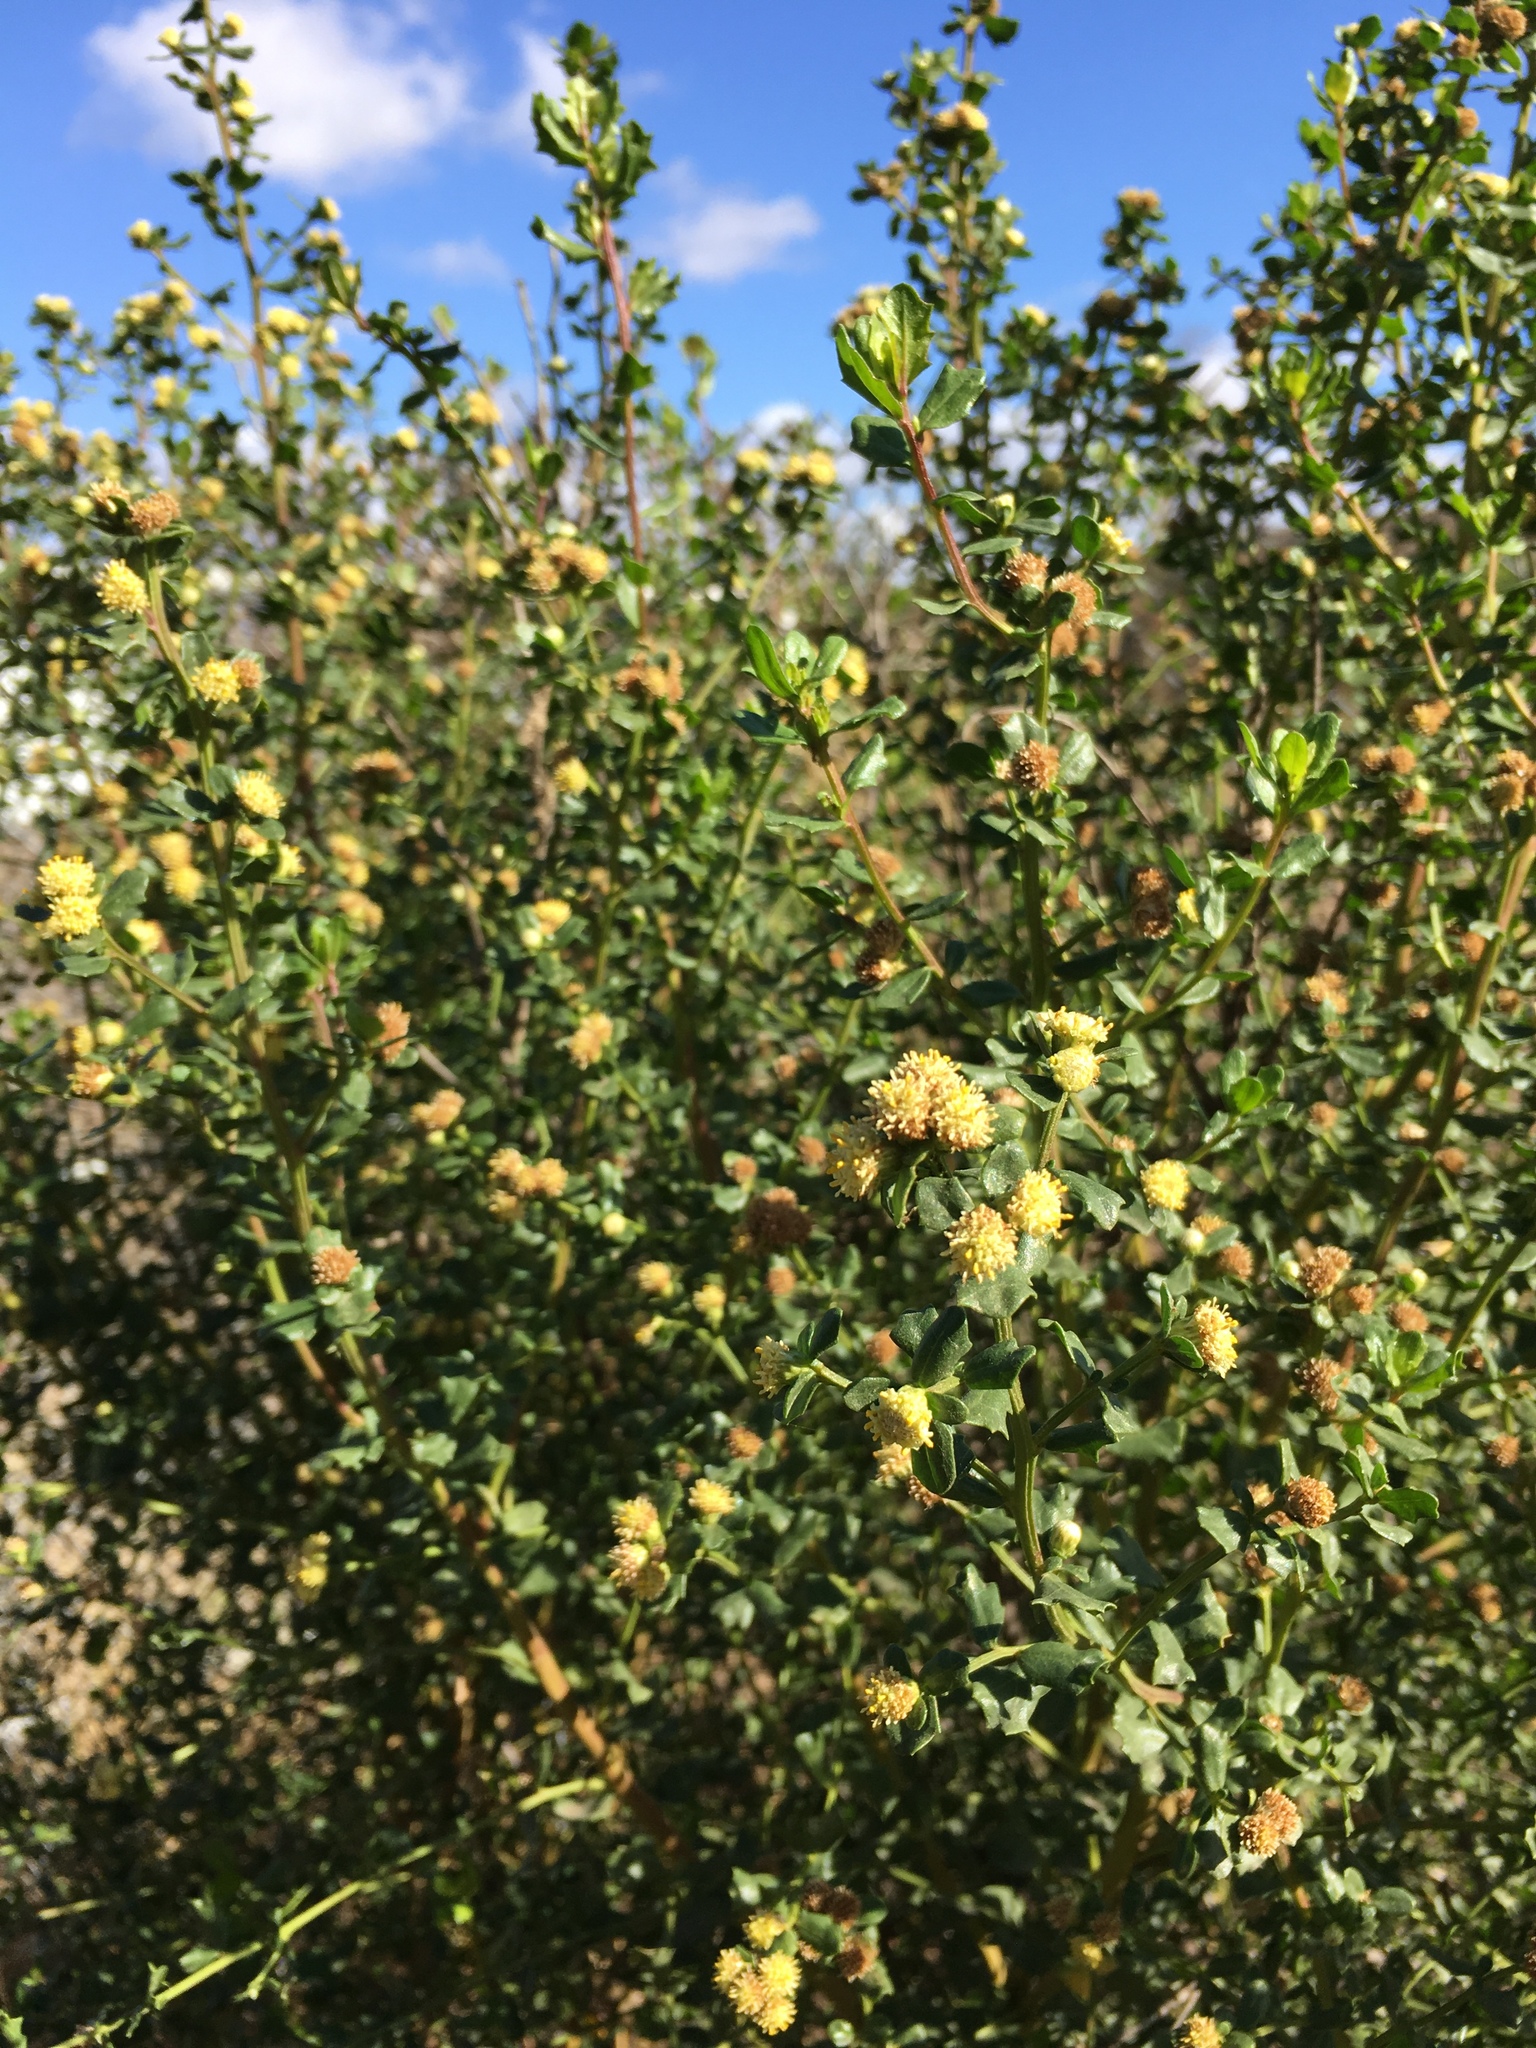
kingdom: Plantae
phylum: Tracheophyta
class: Magnoliopsida
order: Asterales
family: Asteraceae
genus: Baccharis
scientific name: Baccharis pilularis
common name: Coyotebrush
